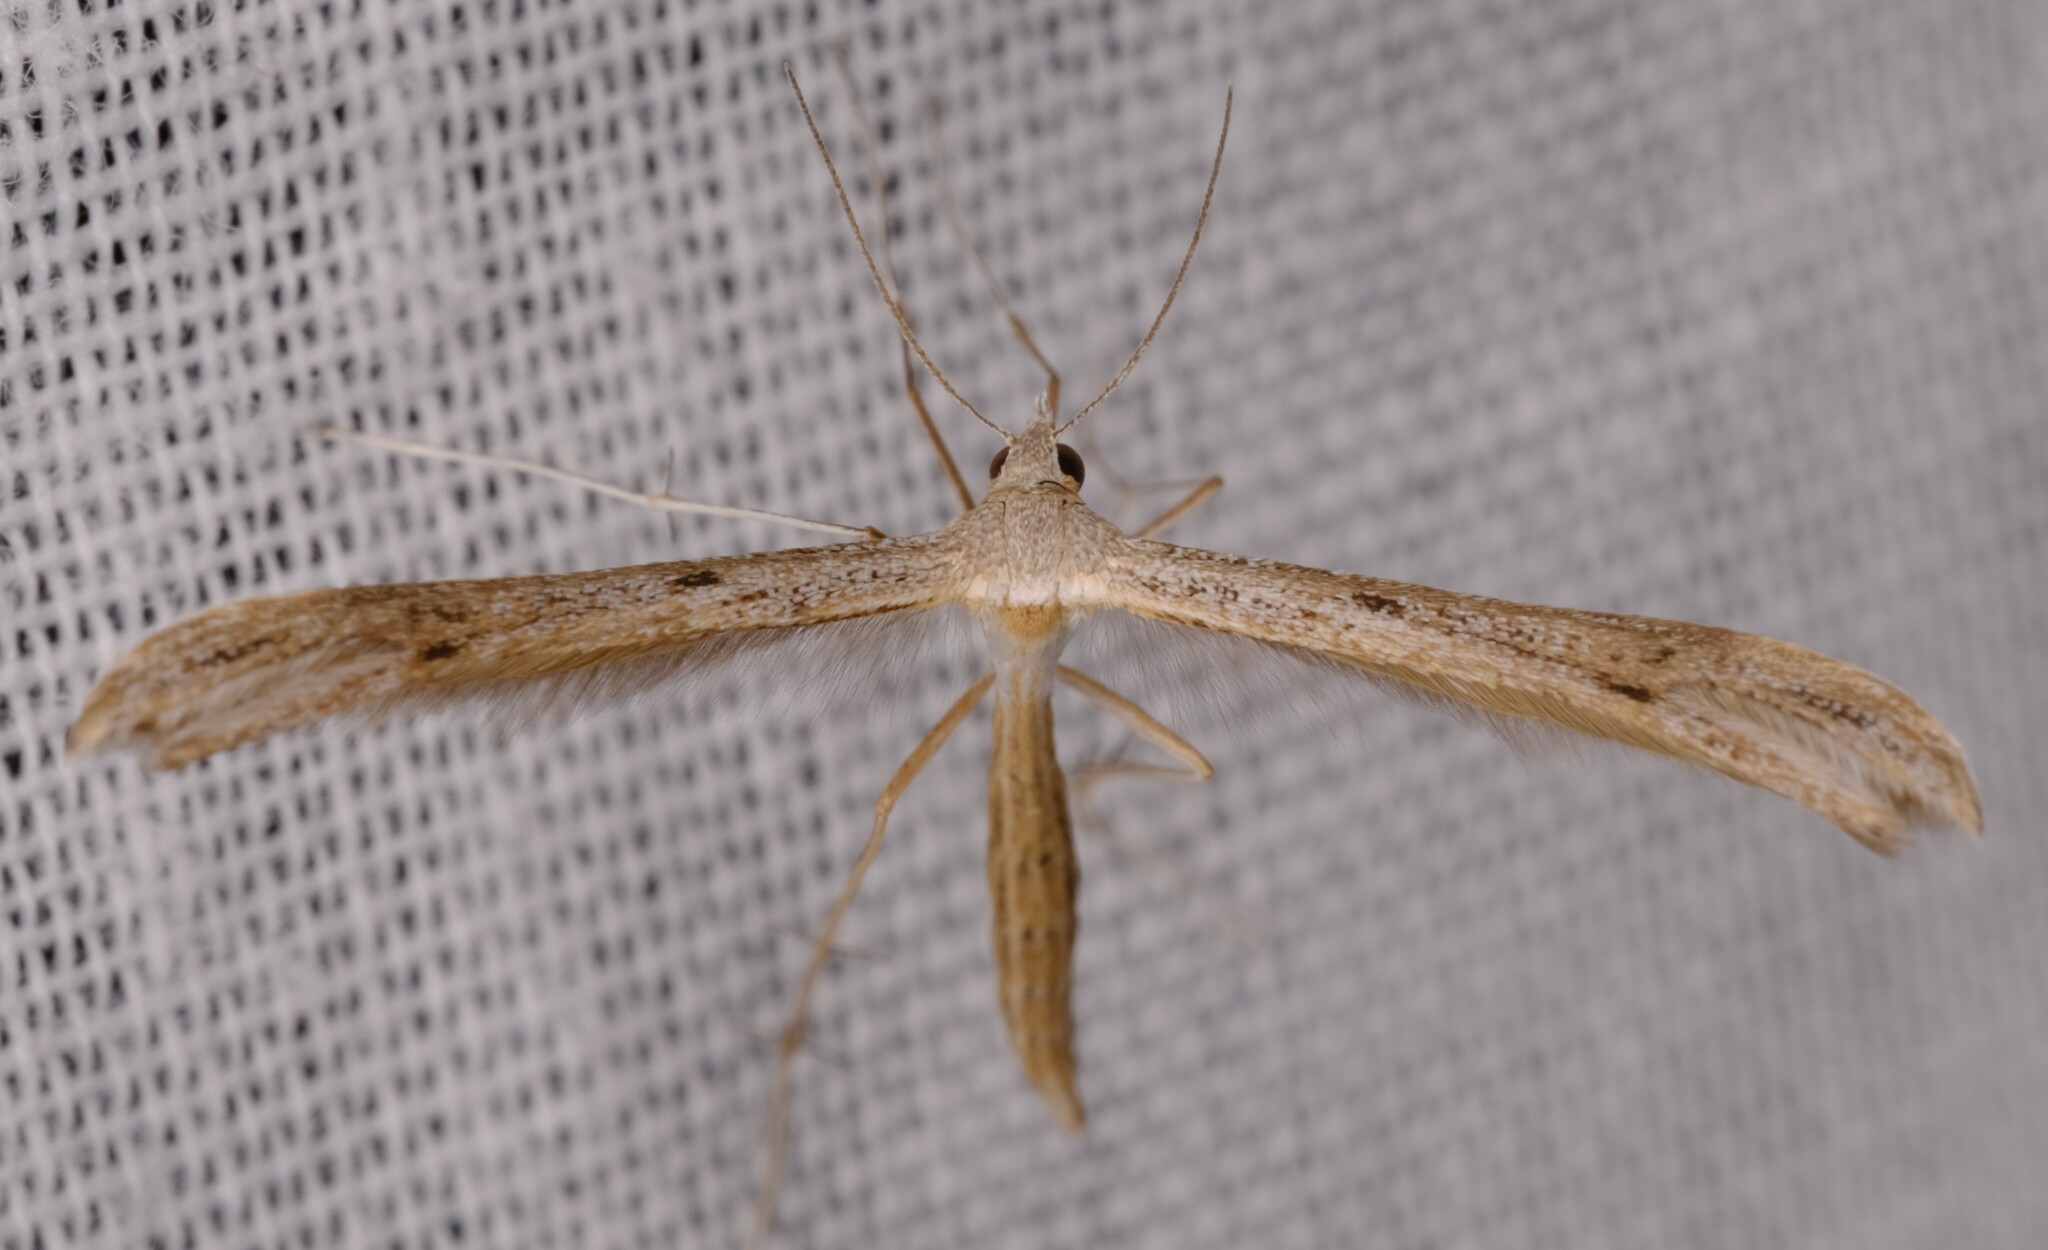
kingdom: Animalia
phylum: Arthropoda
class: Insecta
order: Lepidoptera
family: Pterophoridae
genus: Stenoptilia
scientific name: Stenoptilia zophodactylus
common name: Dowdy plume
